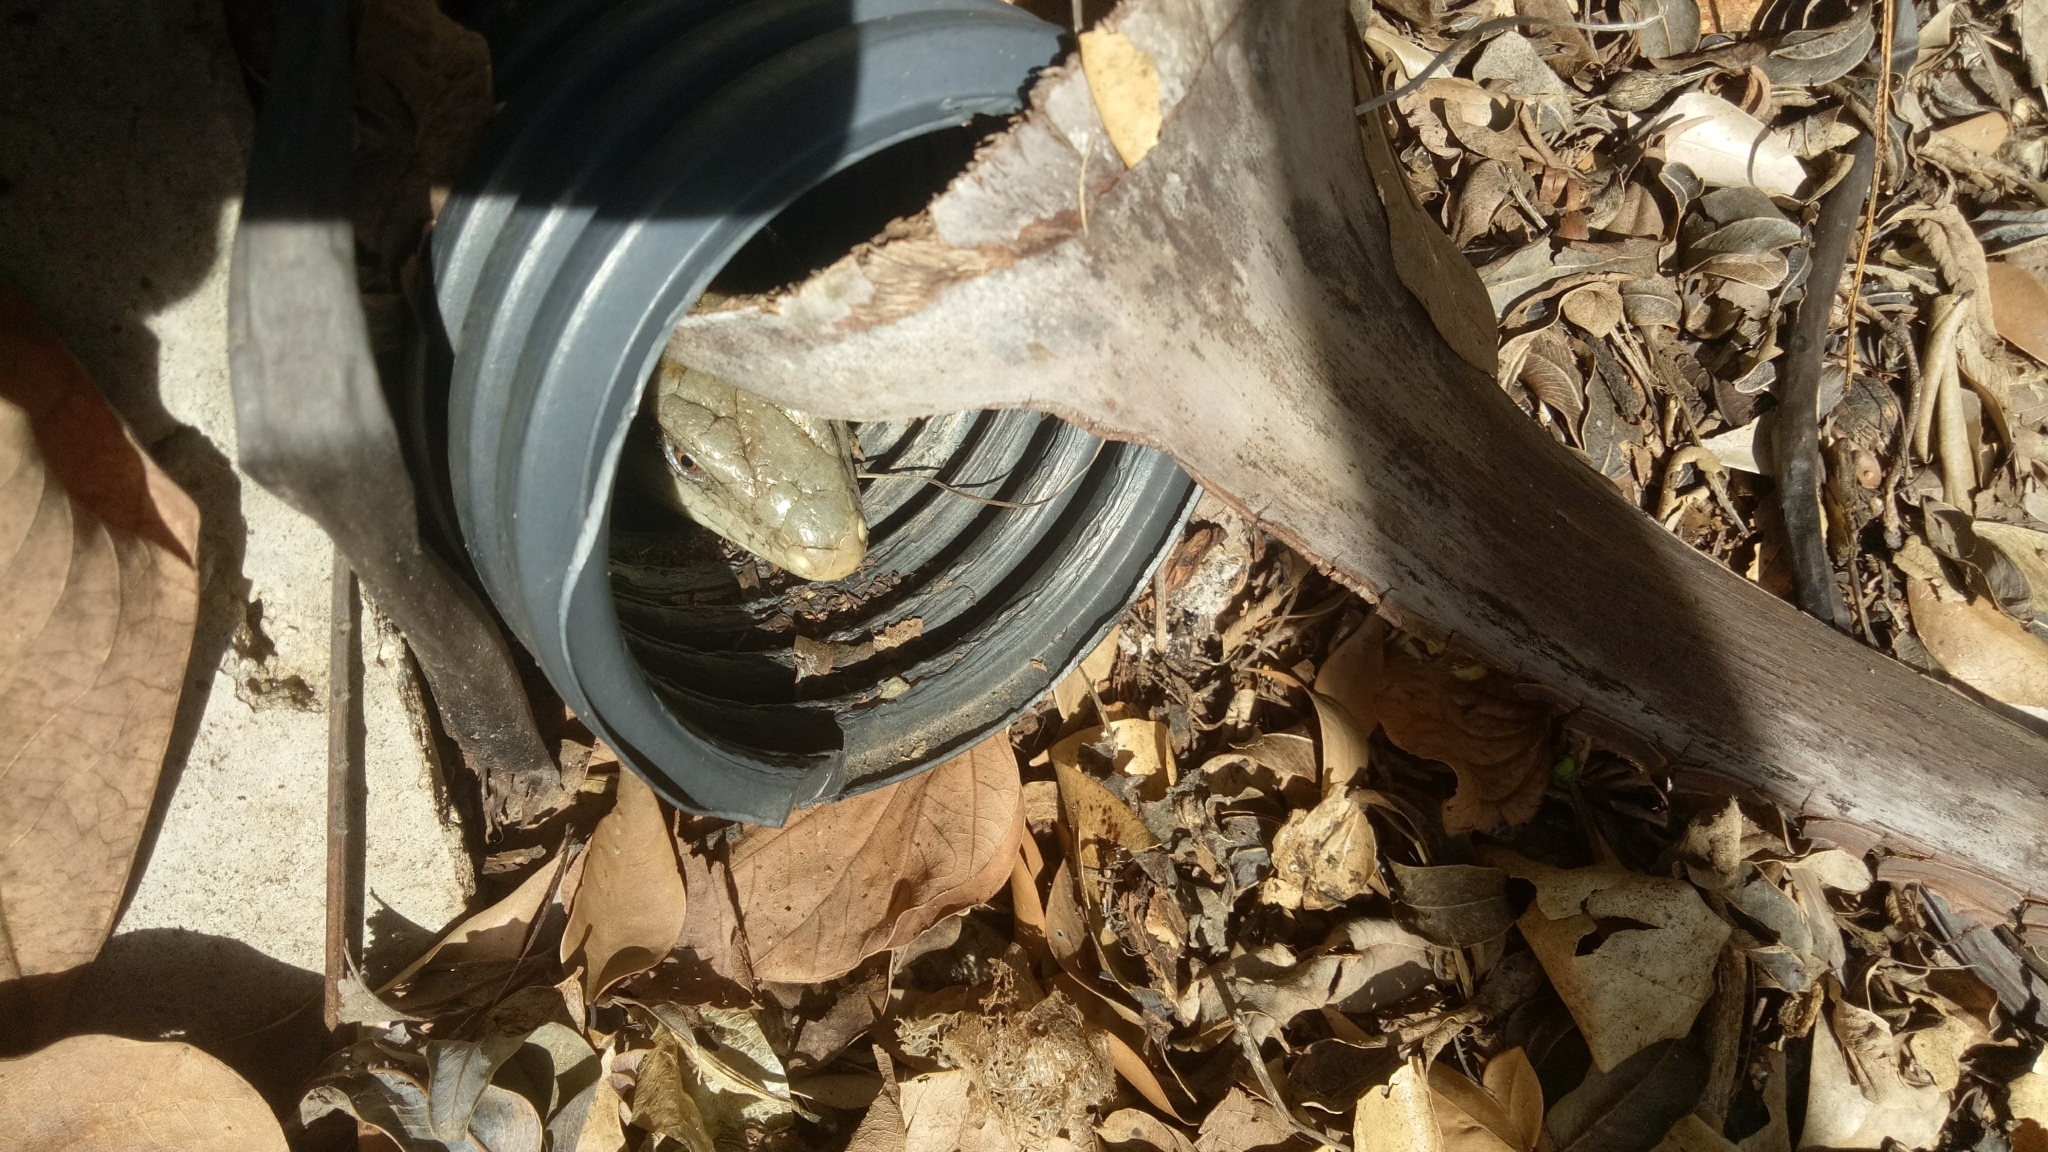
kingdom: Animalia
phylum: Chordata
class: Squamata
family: Scincidae
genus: Tiliqua
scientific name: Tiliqua scincoides
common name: Common bluetongue
